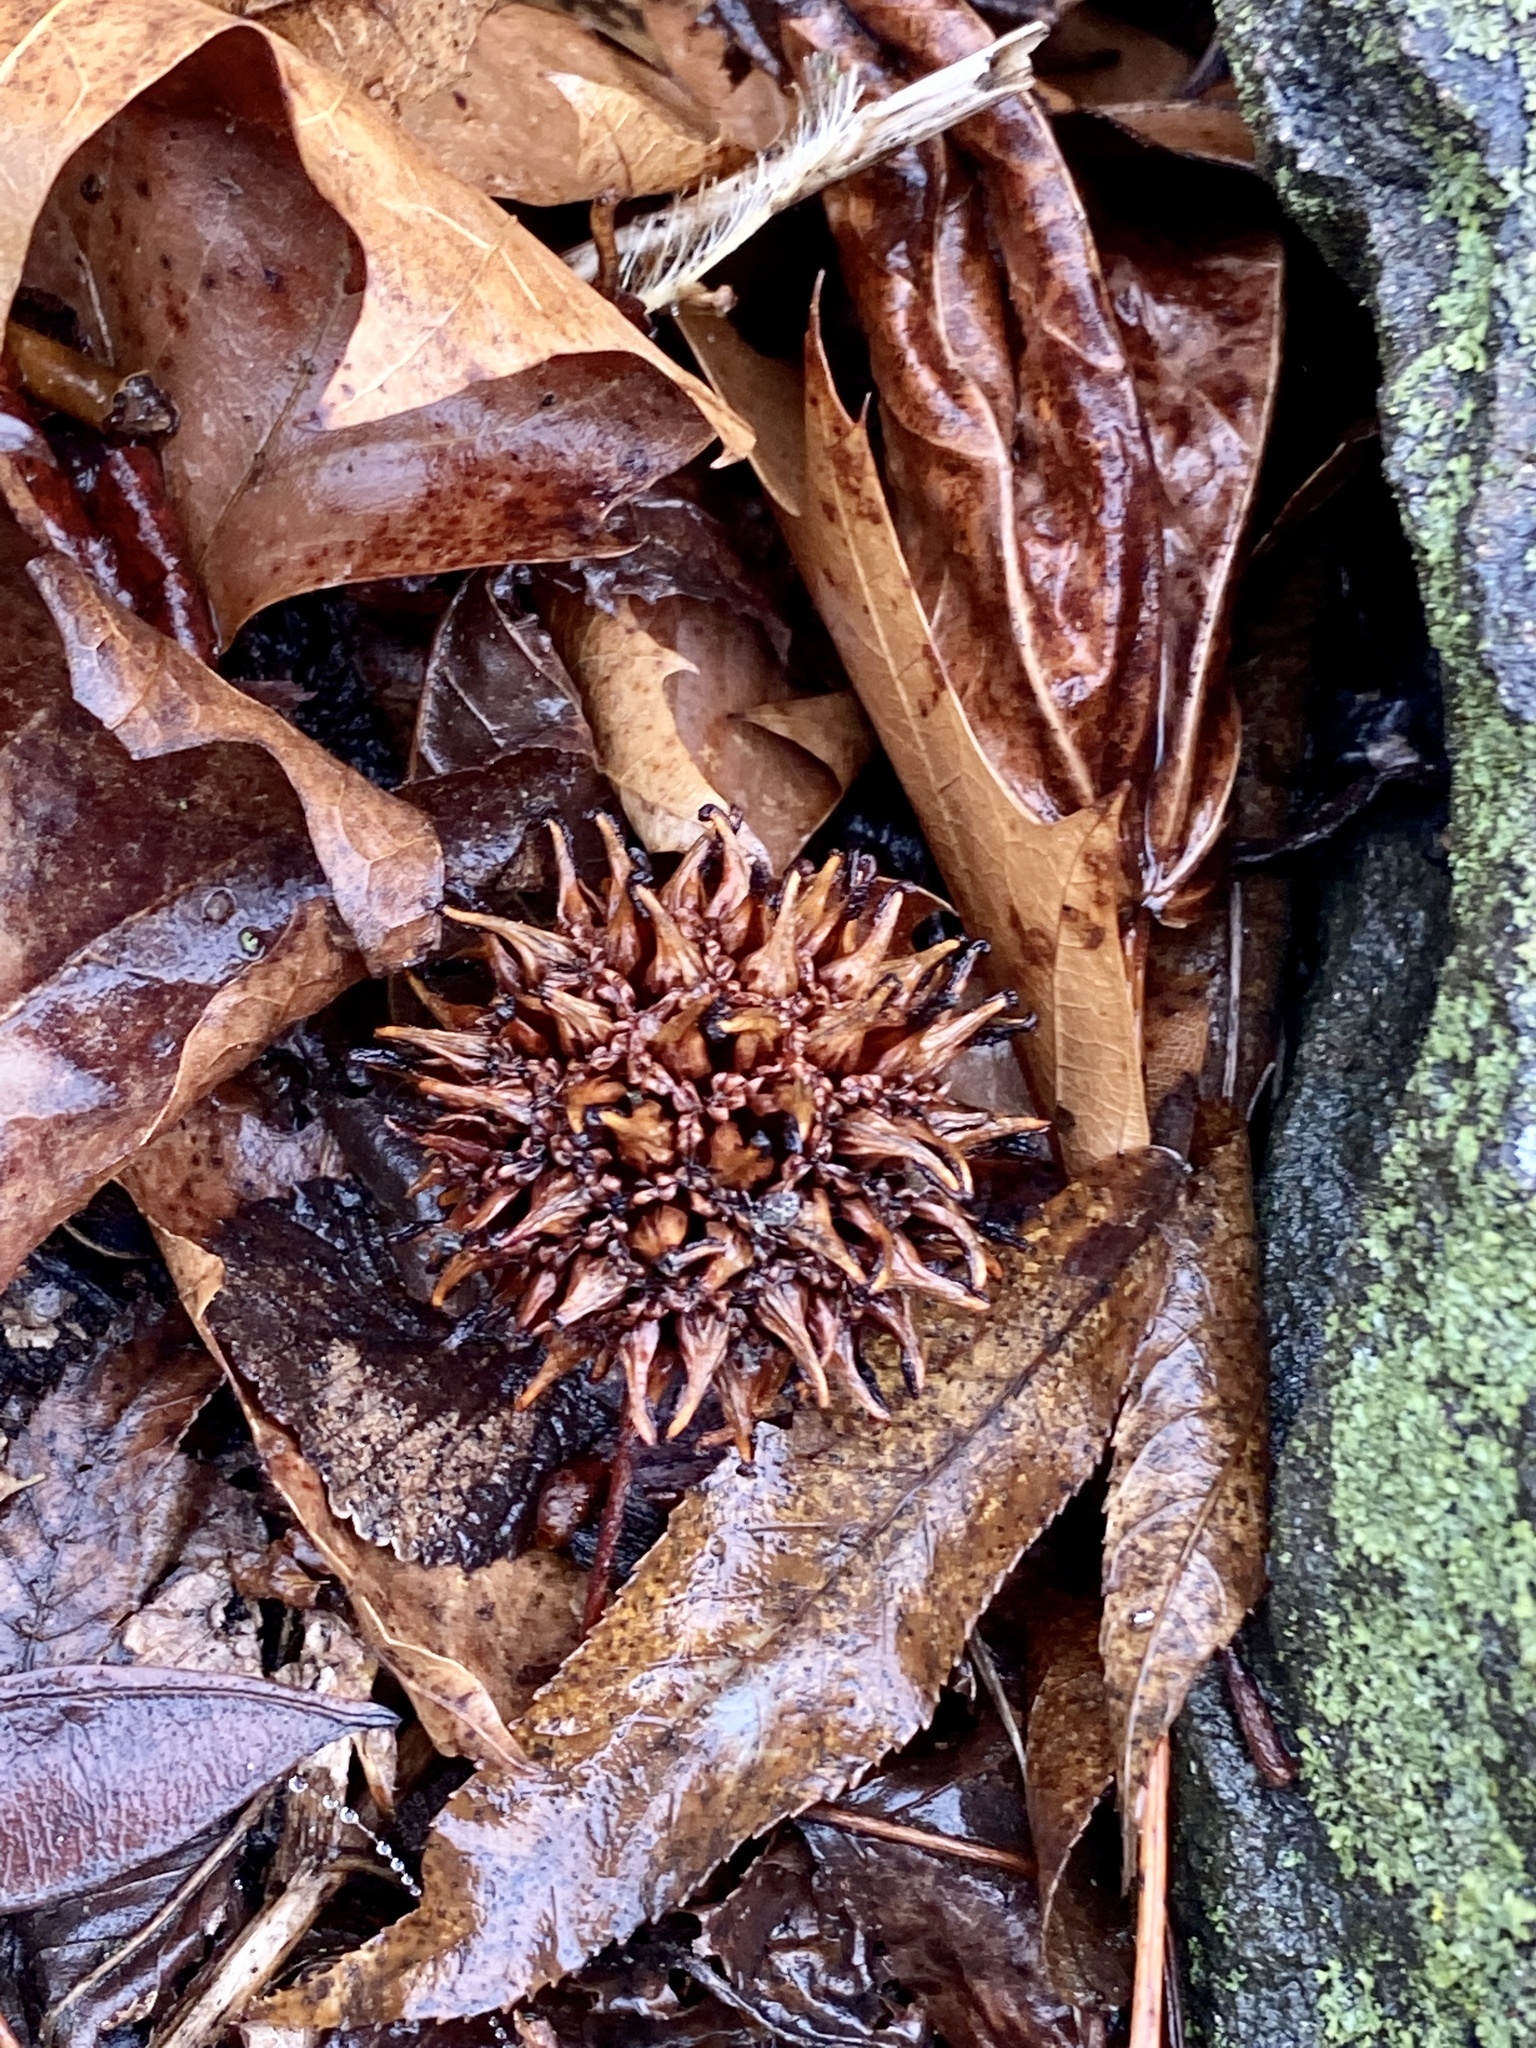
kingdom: Plantae
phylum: Tracheophyta
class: Magnoliopsida
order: Saxifragales
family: Altingiaceae
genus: Liquidambar
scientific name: Liquidambar styraciflua
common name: Sweet gum
